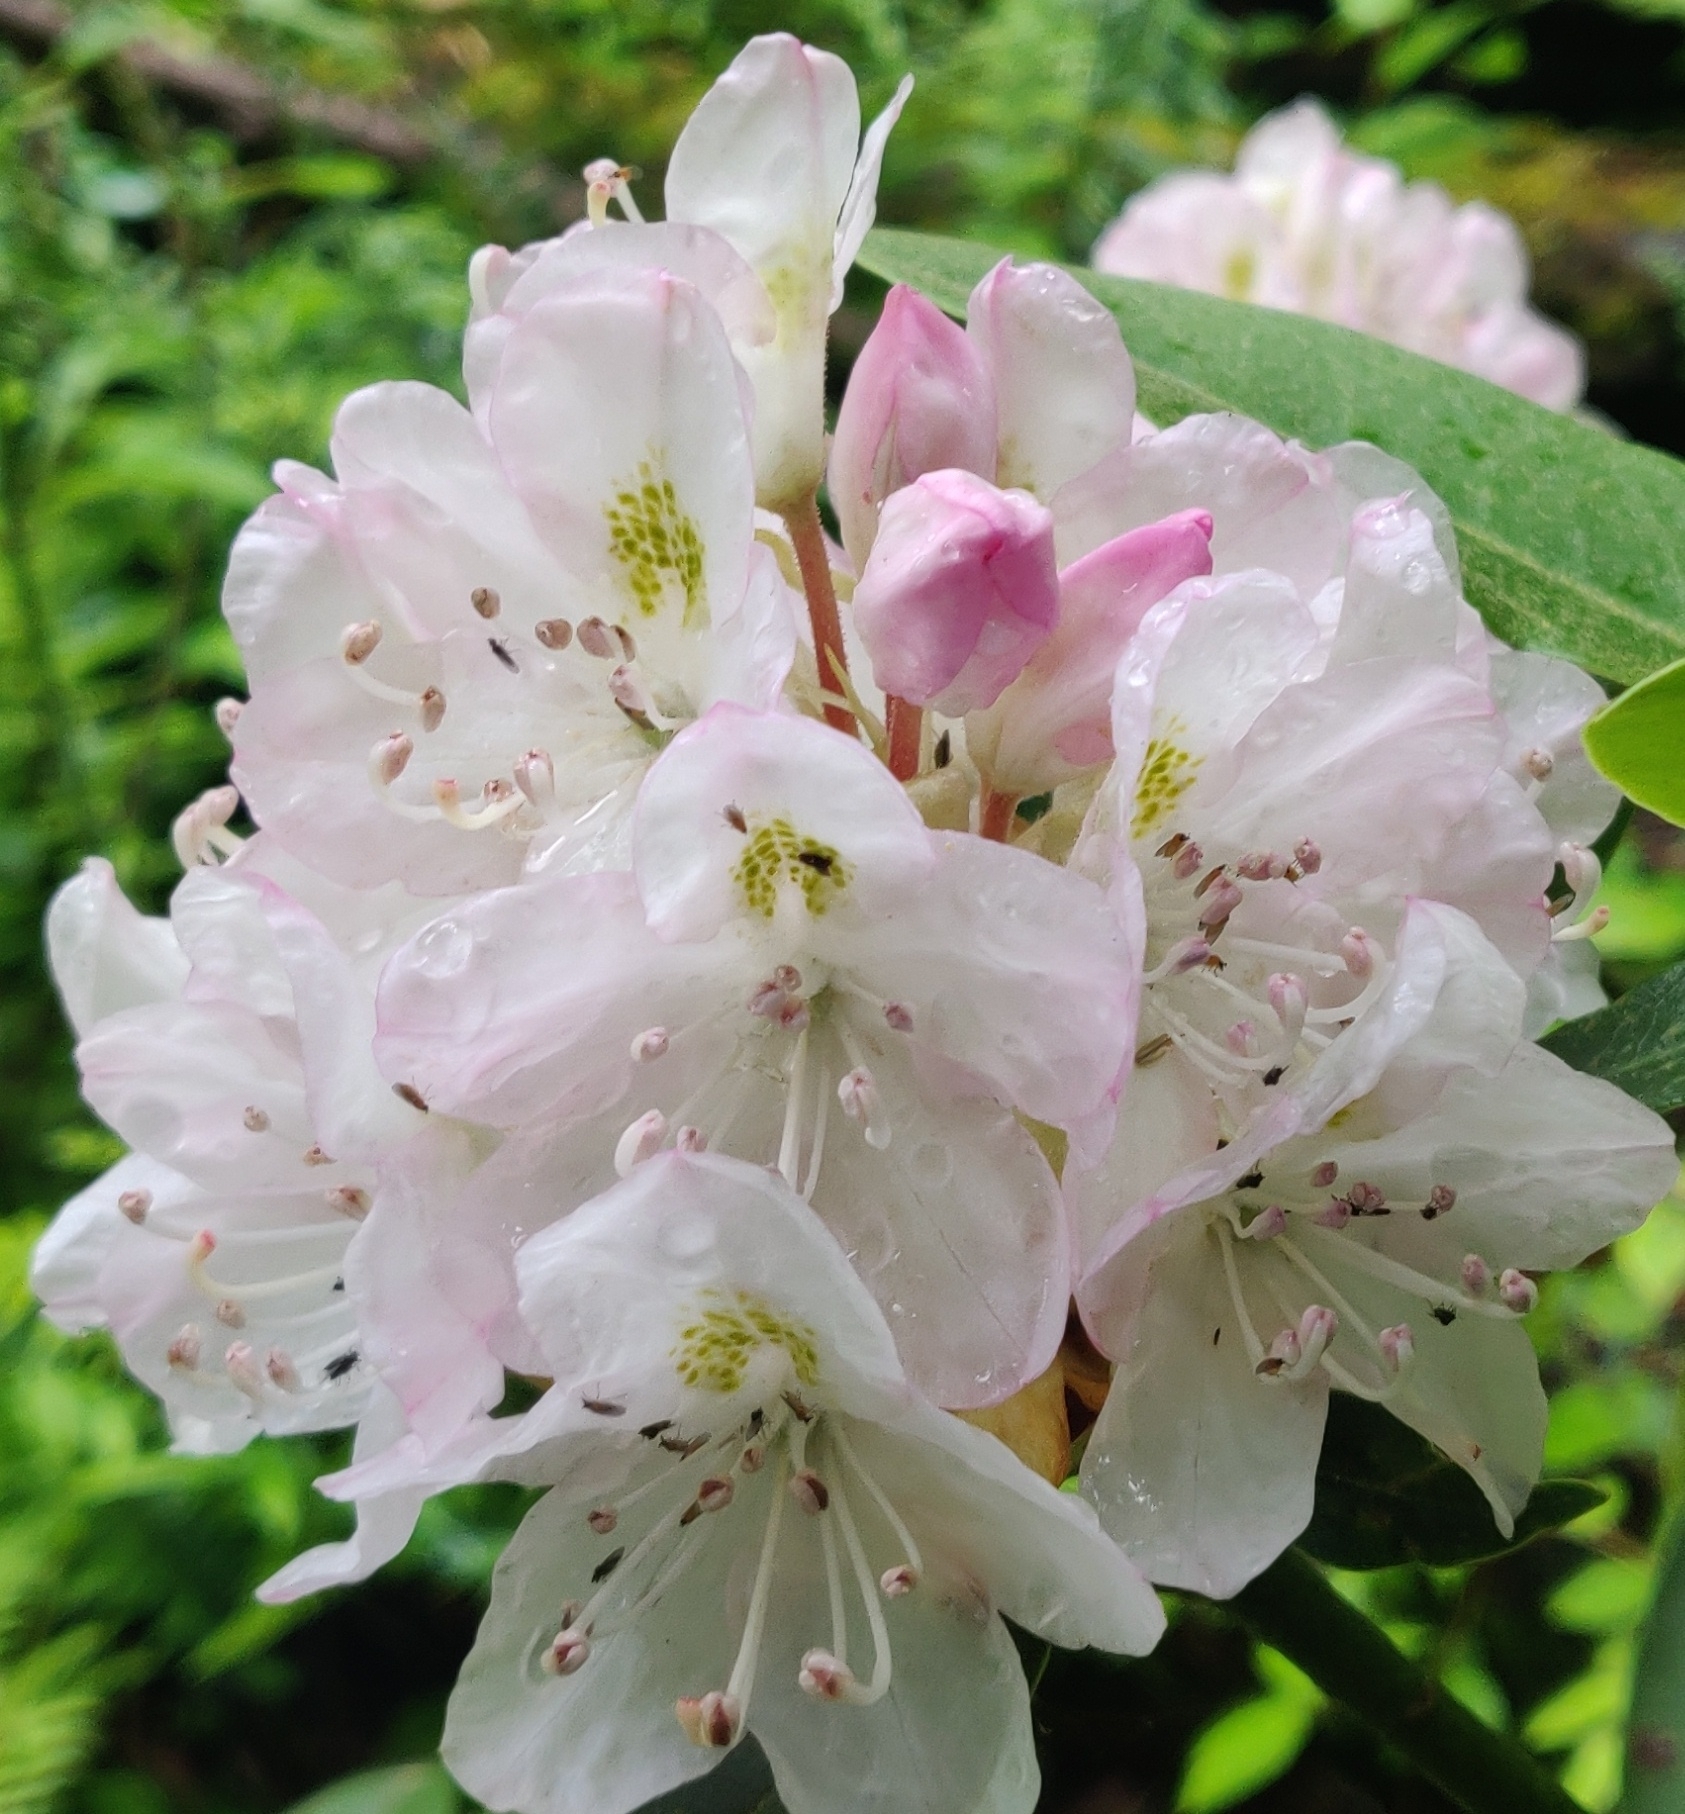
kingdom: Plantae
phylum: Tracheophyta
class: Magnoliopsida
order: Ericales
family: Ericaceae
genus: Rhododendron
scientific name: Rhododendron maximum
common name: Great rhododendron
